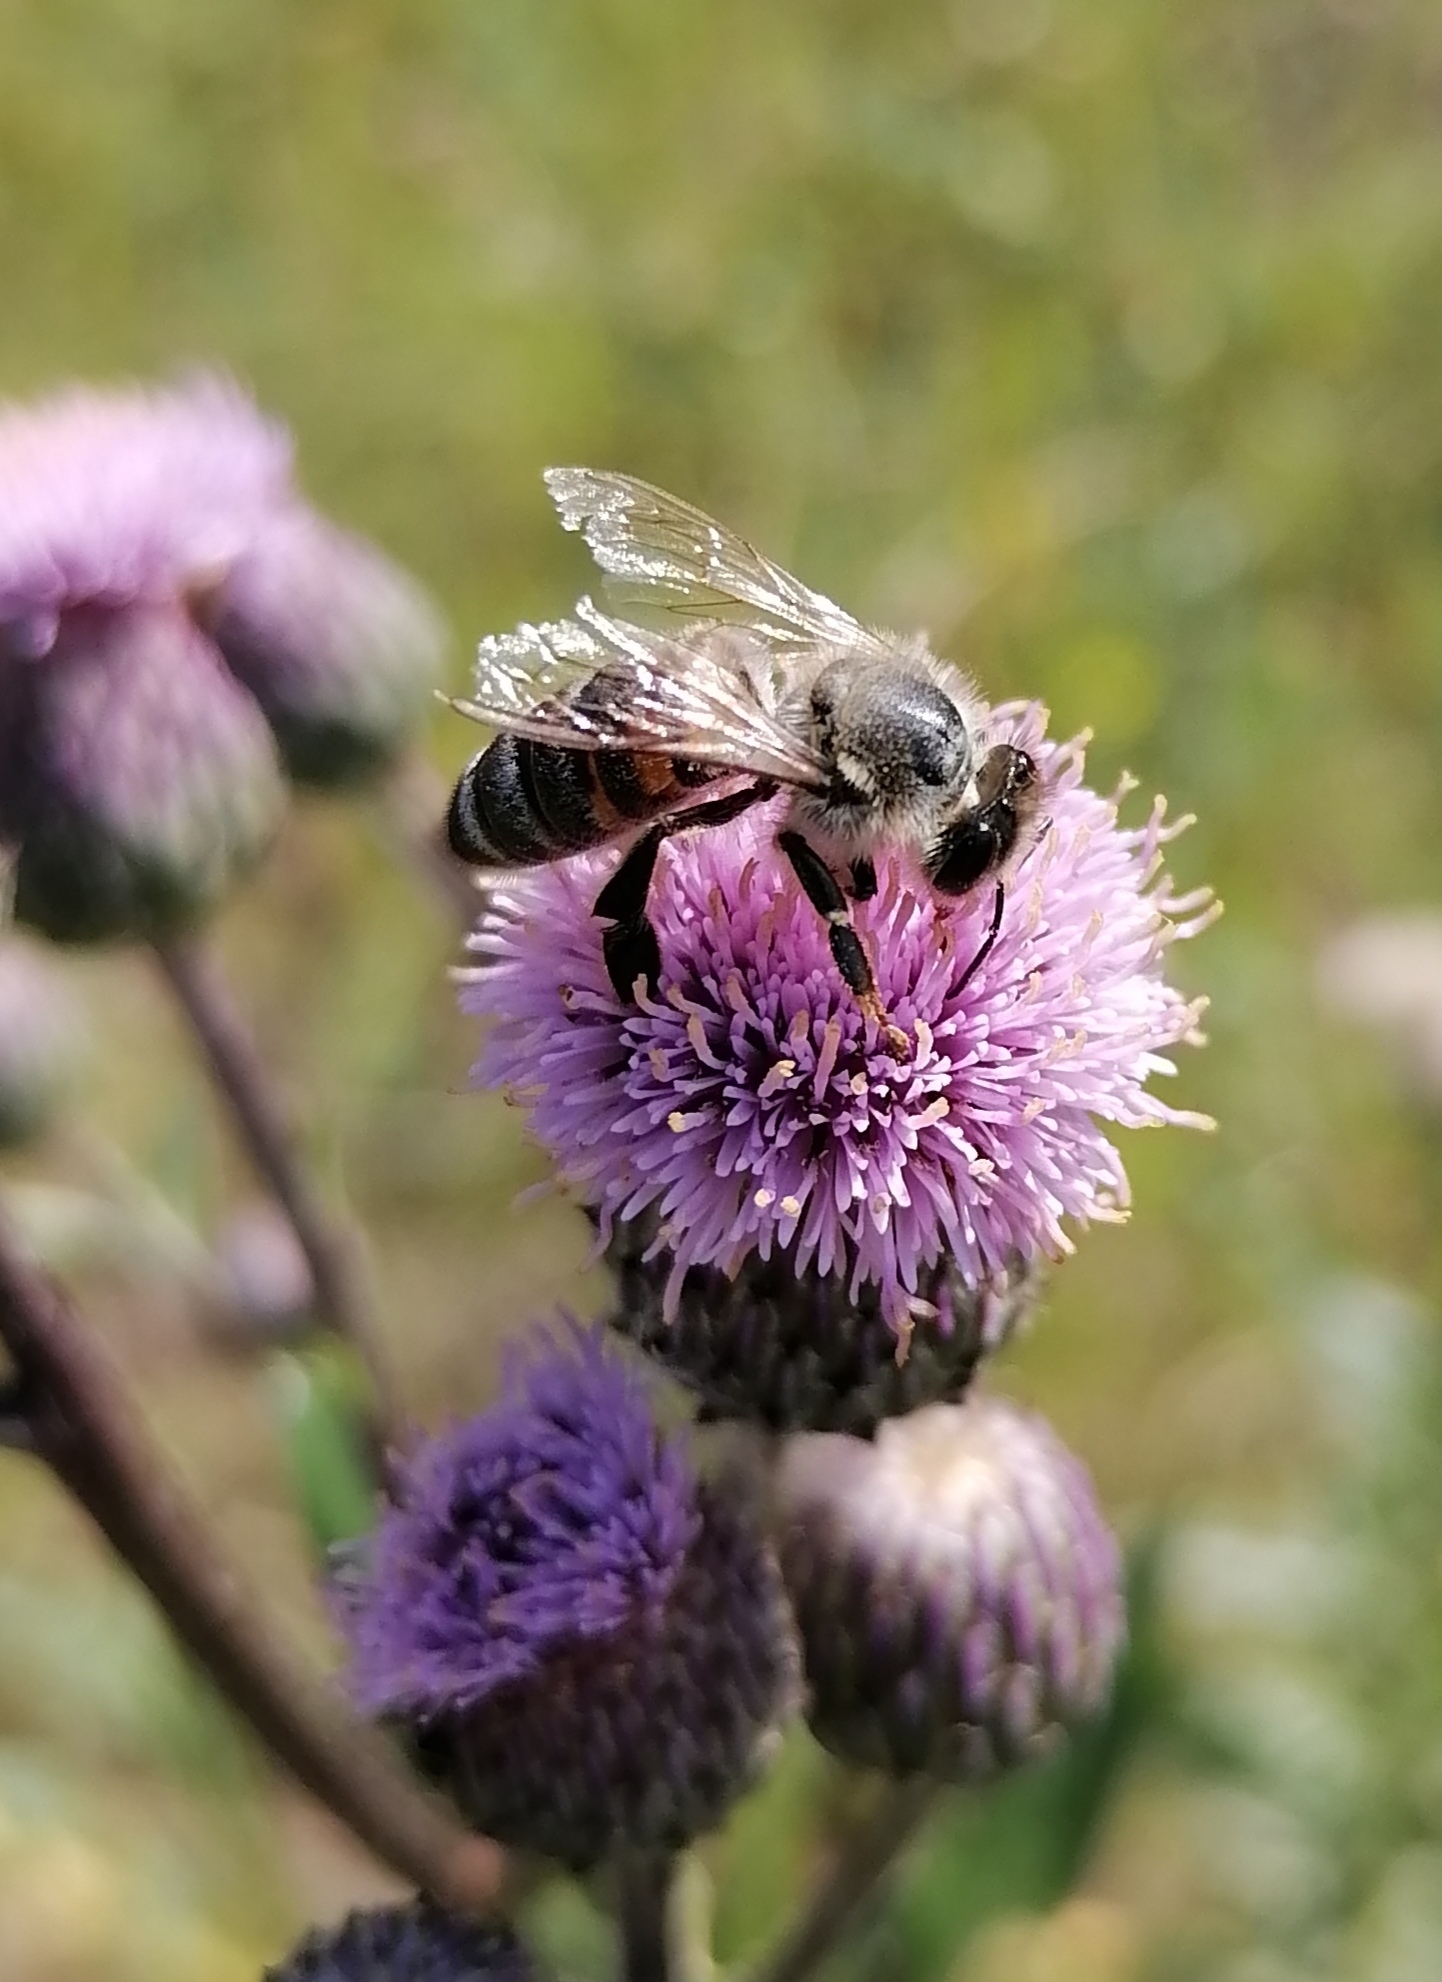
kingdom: Animalia
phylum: Arthropoda
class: Insecta
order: Hymenoptera
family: Apidae
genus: Apis
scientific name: Apis mellifera
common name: Honey bee
